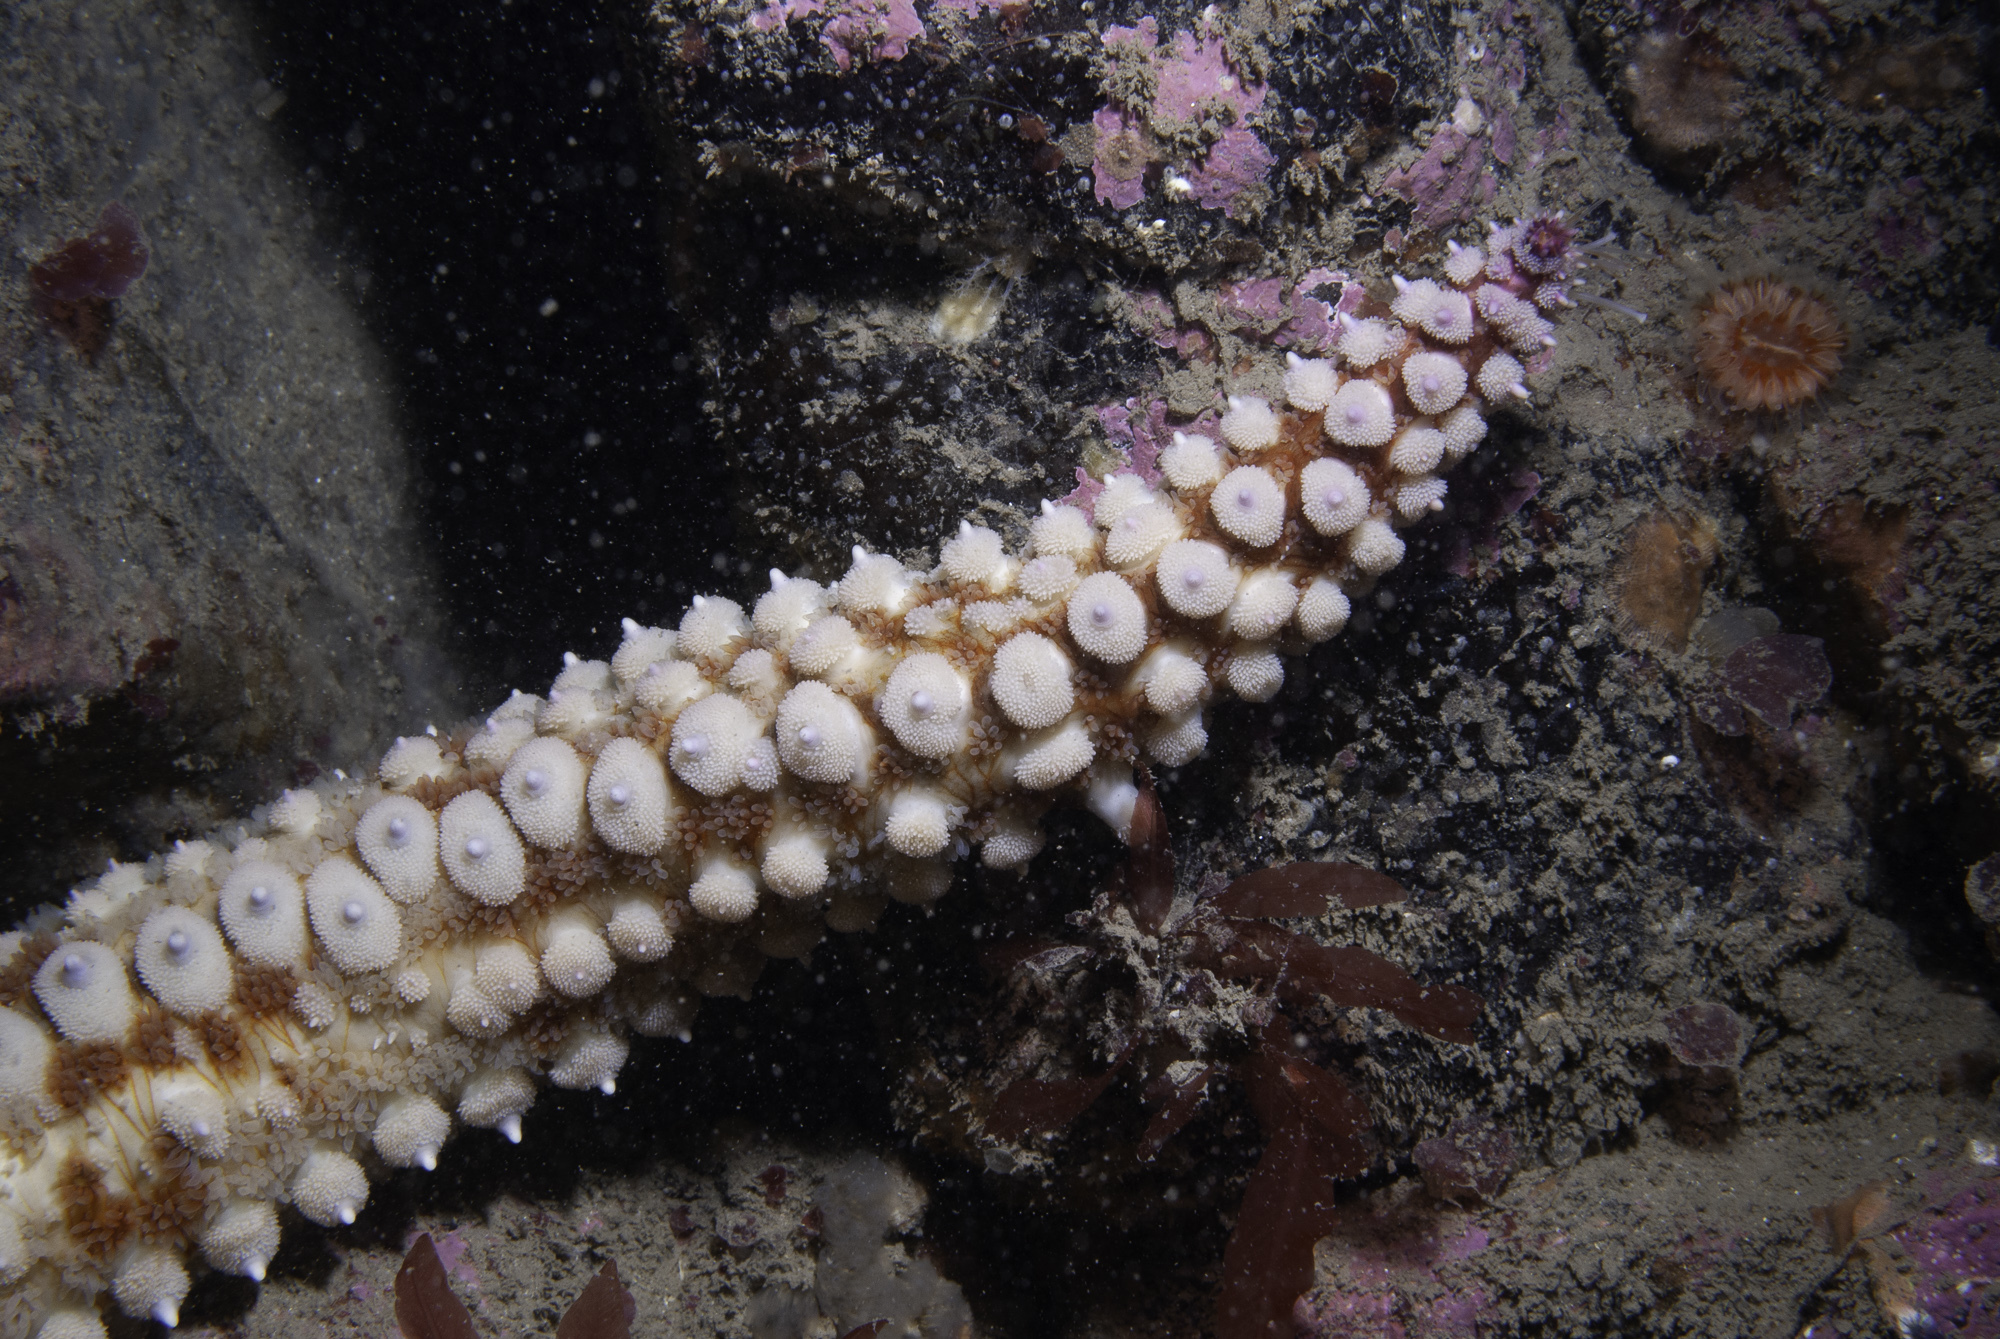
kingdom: Animalia
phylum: Echinodermata
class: Asteroidea
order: Forcipulatida
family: Asteriidae
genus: Marthasterias
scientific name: Marthasterias glacialis
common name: Spiny starfish
